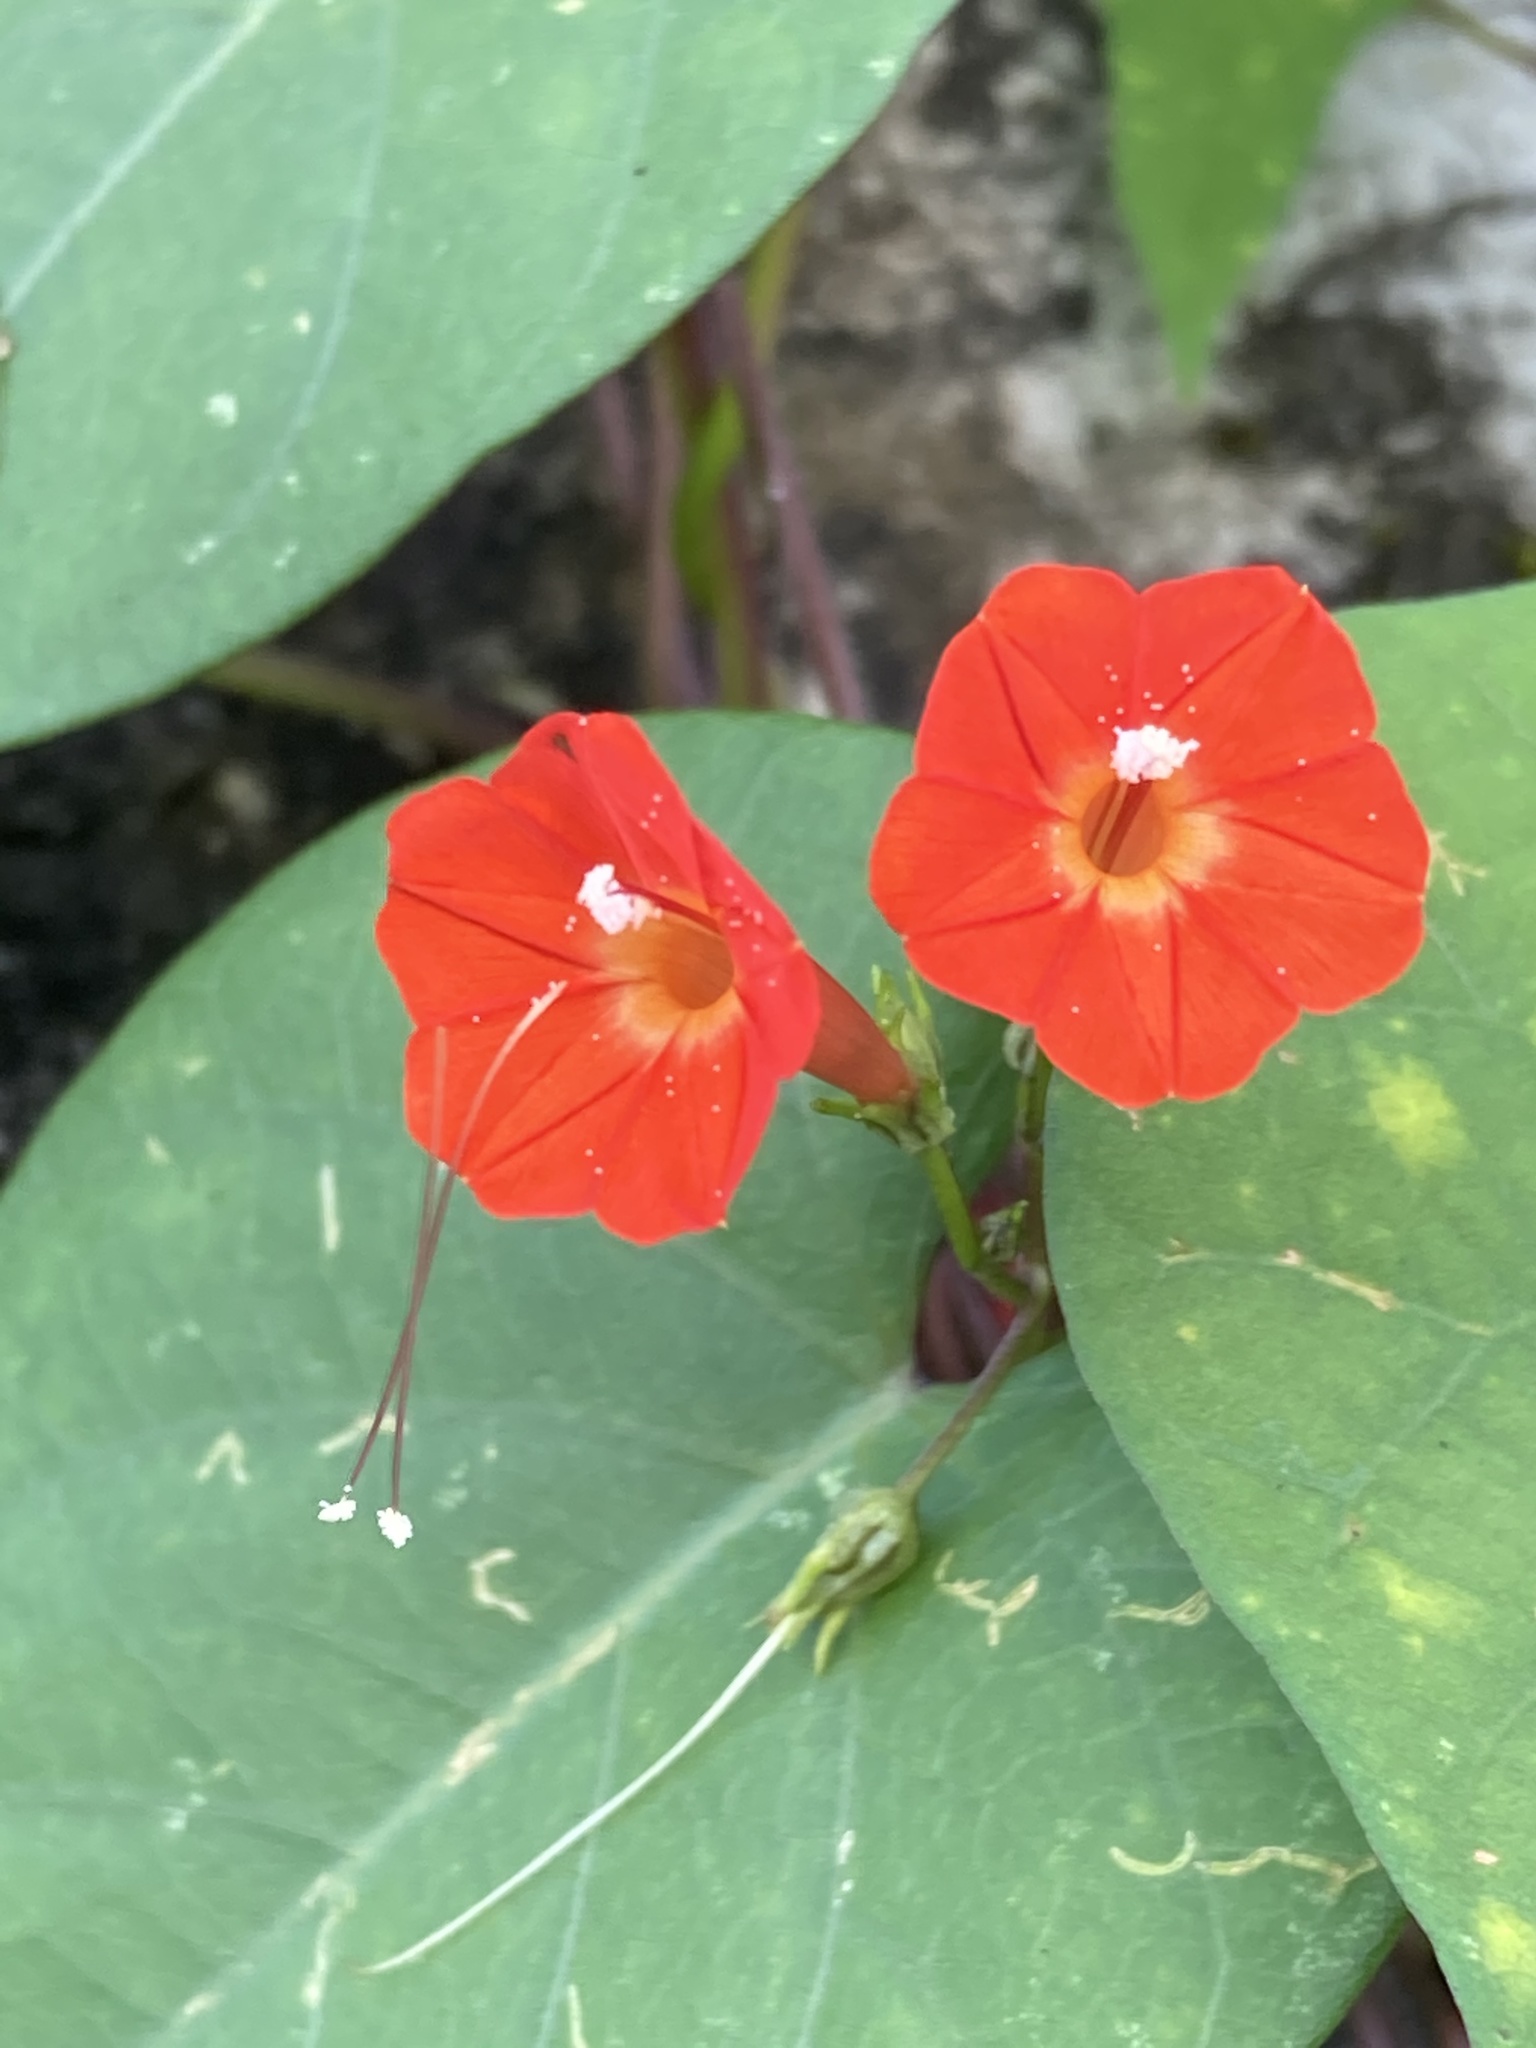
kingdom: Plantae
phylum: Tracheophyta
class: Magnoliopsida
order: Solanales
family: Convolvulaceae
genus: Ipomoea
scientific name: Ipomoea hederifolia
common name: Ivy-leaf morning-glory
